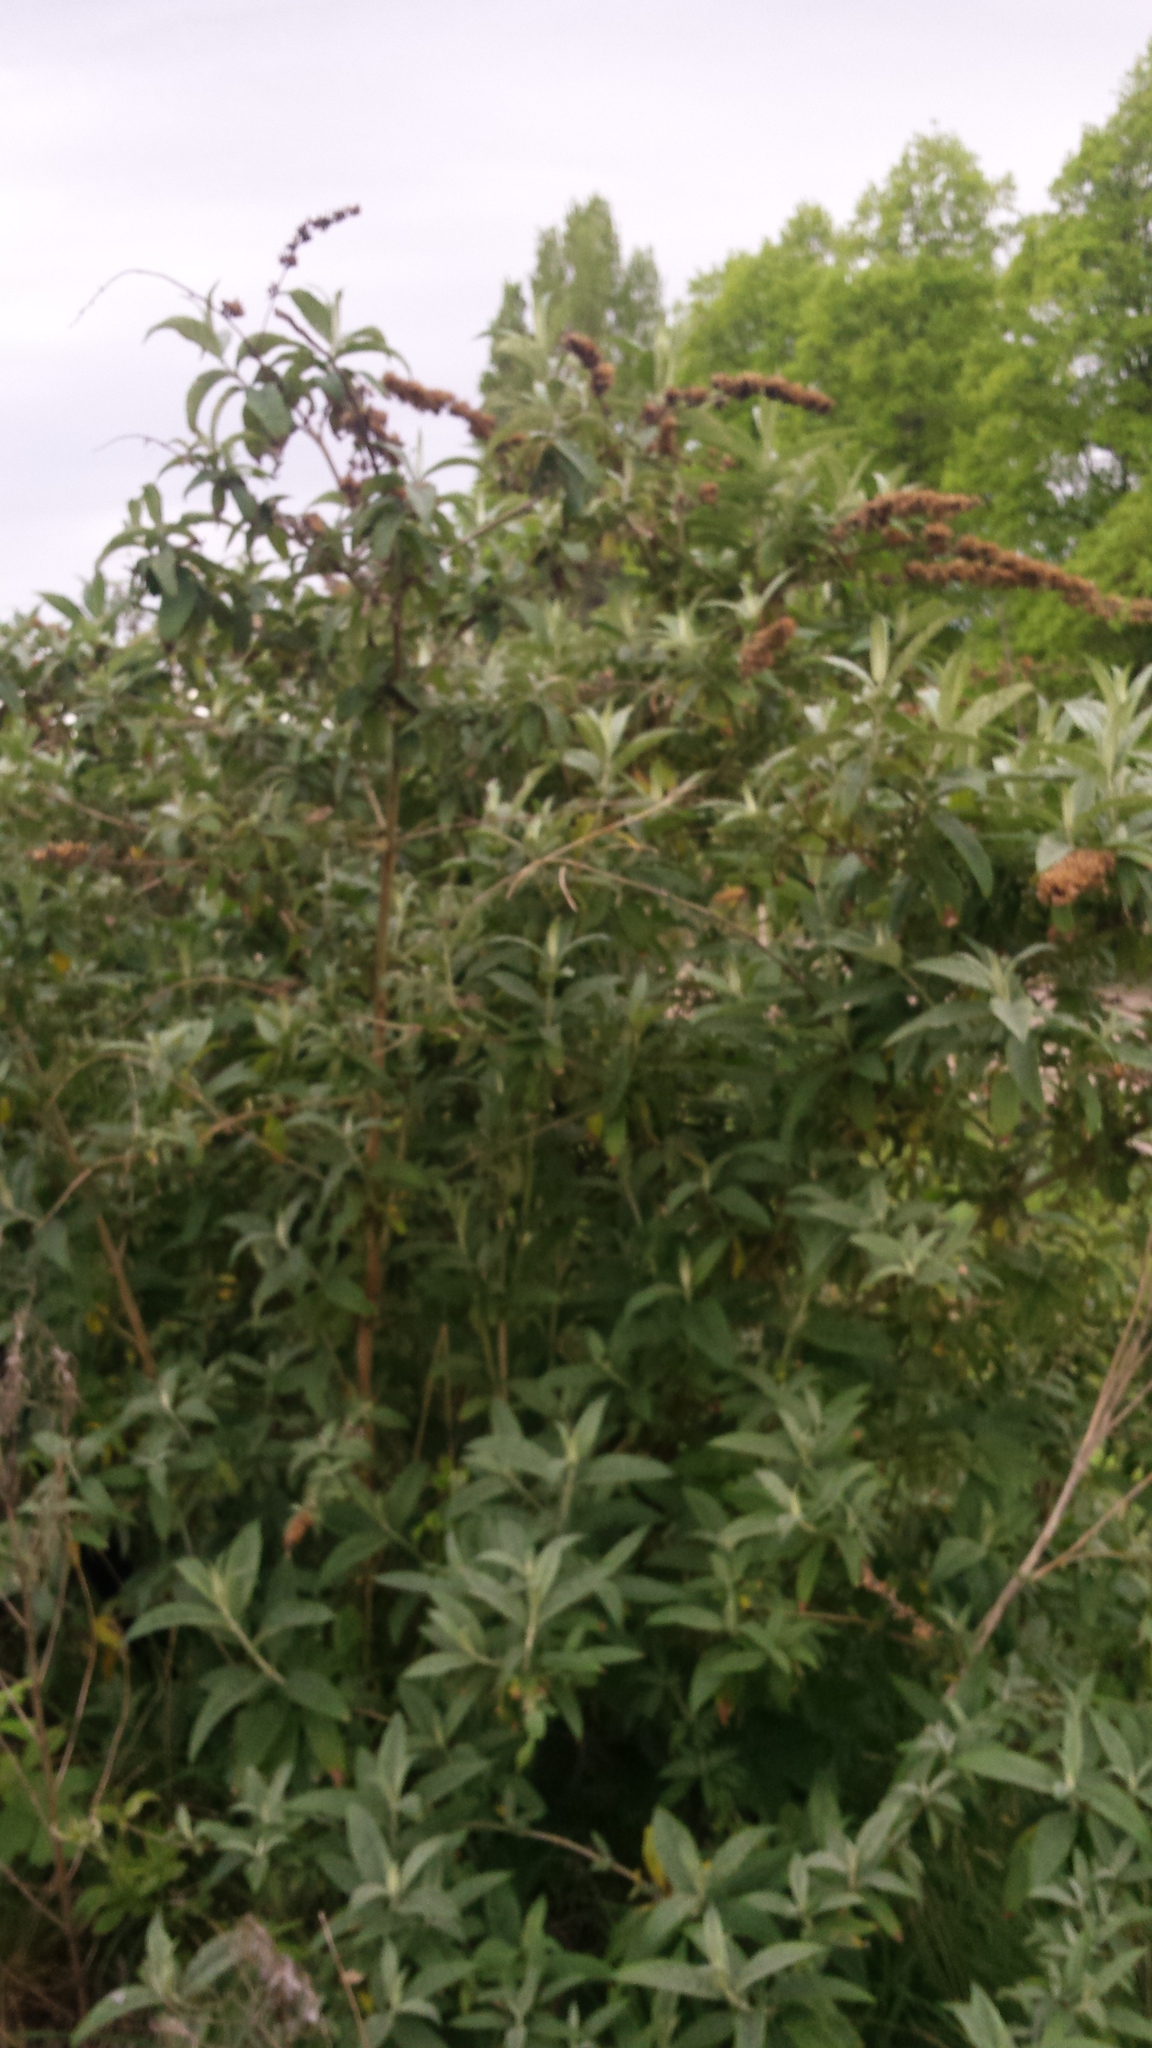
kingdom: Plantae
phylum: Tracheophyta
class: Magnoliopsida
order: Lamiales
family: Scrophulariaceae
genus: Buddleja
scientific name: Buddleja davidii
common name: Butterfly-bush
